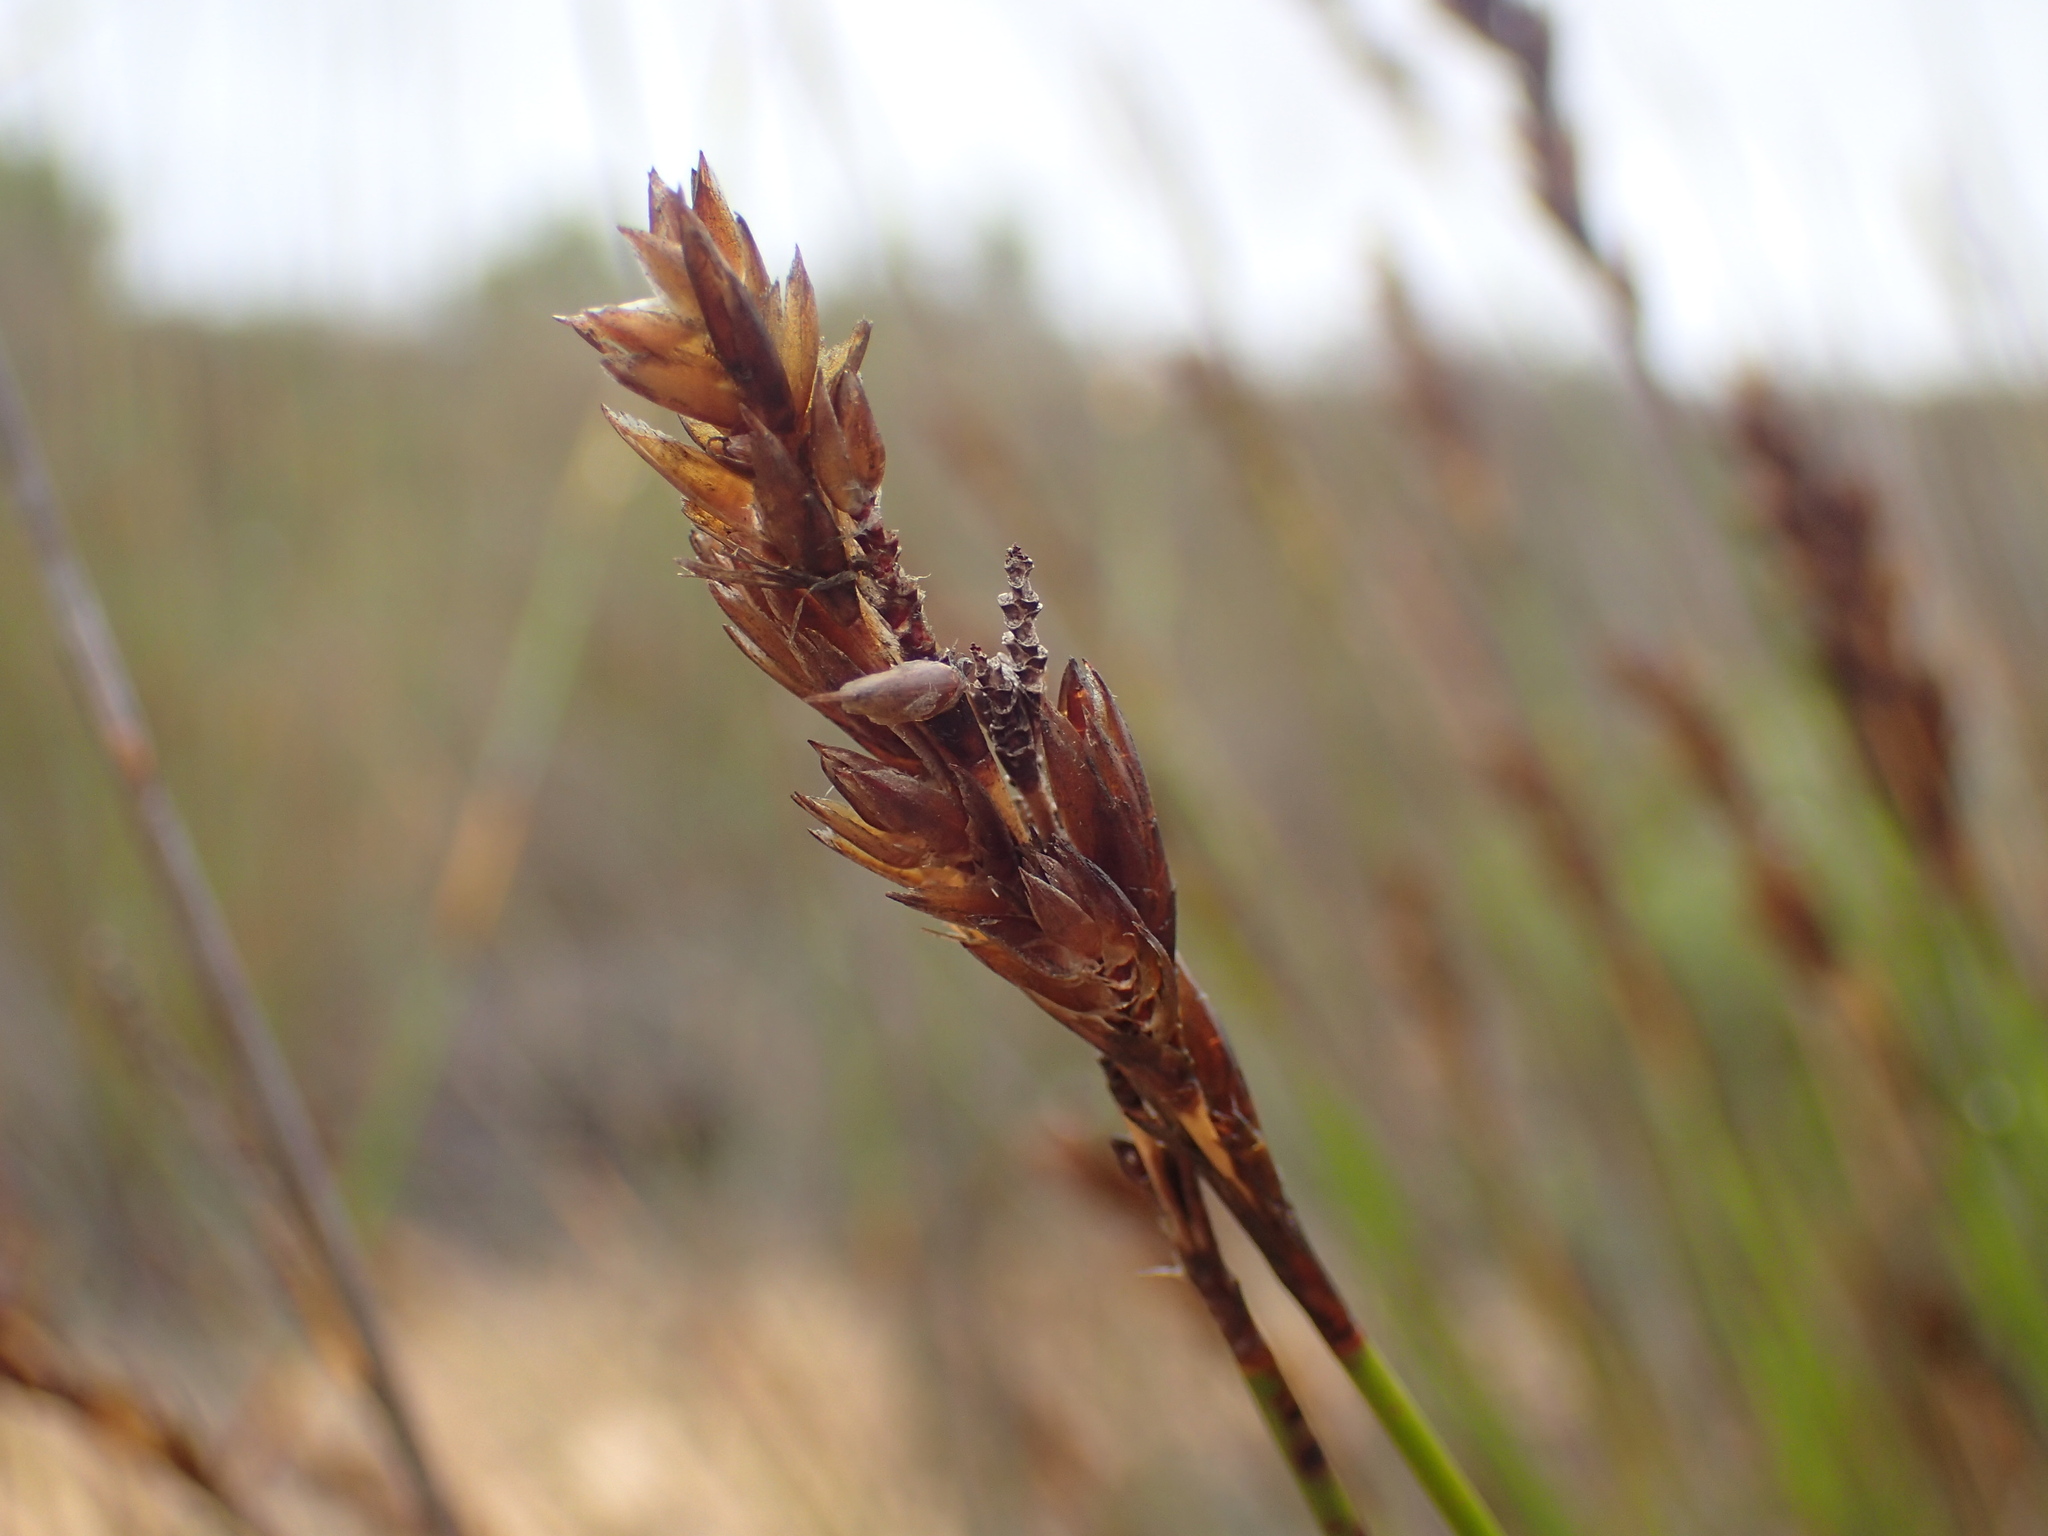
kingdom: Plantae
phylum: Tracheophyta
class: Liliopsida
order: Poales
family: Restionaceae
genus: Thamnochortus
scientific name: Thamnochortus punctatus
